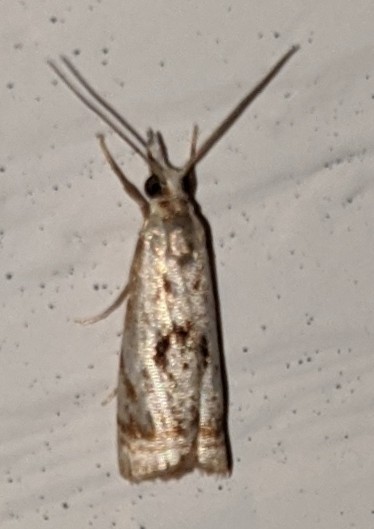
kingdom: Animalia
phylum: Arthropoda
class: Insecta
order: Lepidoptera
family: Crambidae
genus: Microcrambus
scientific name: Microcrambus elegans
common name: Elegant grass-veneer
